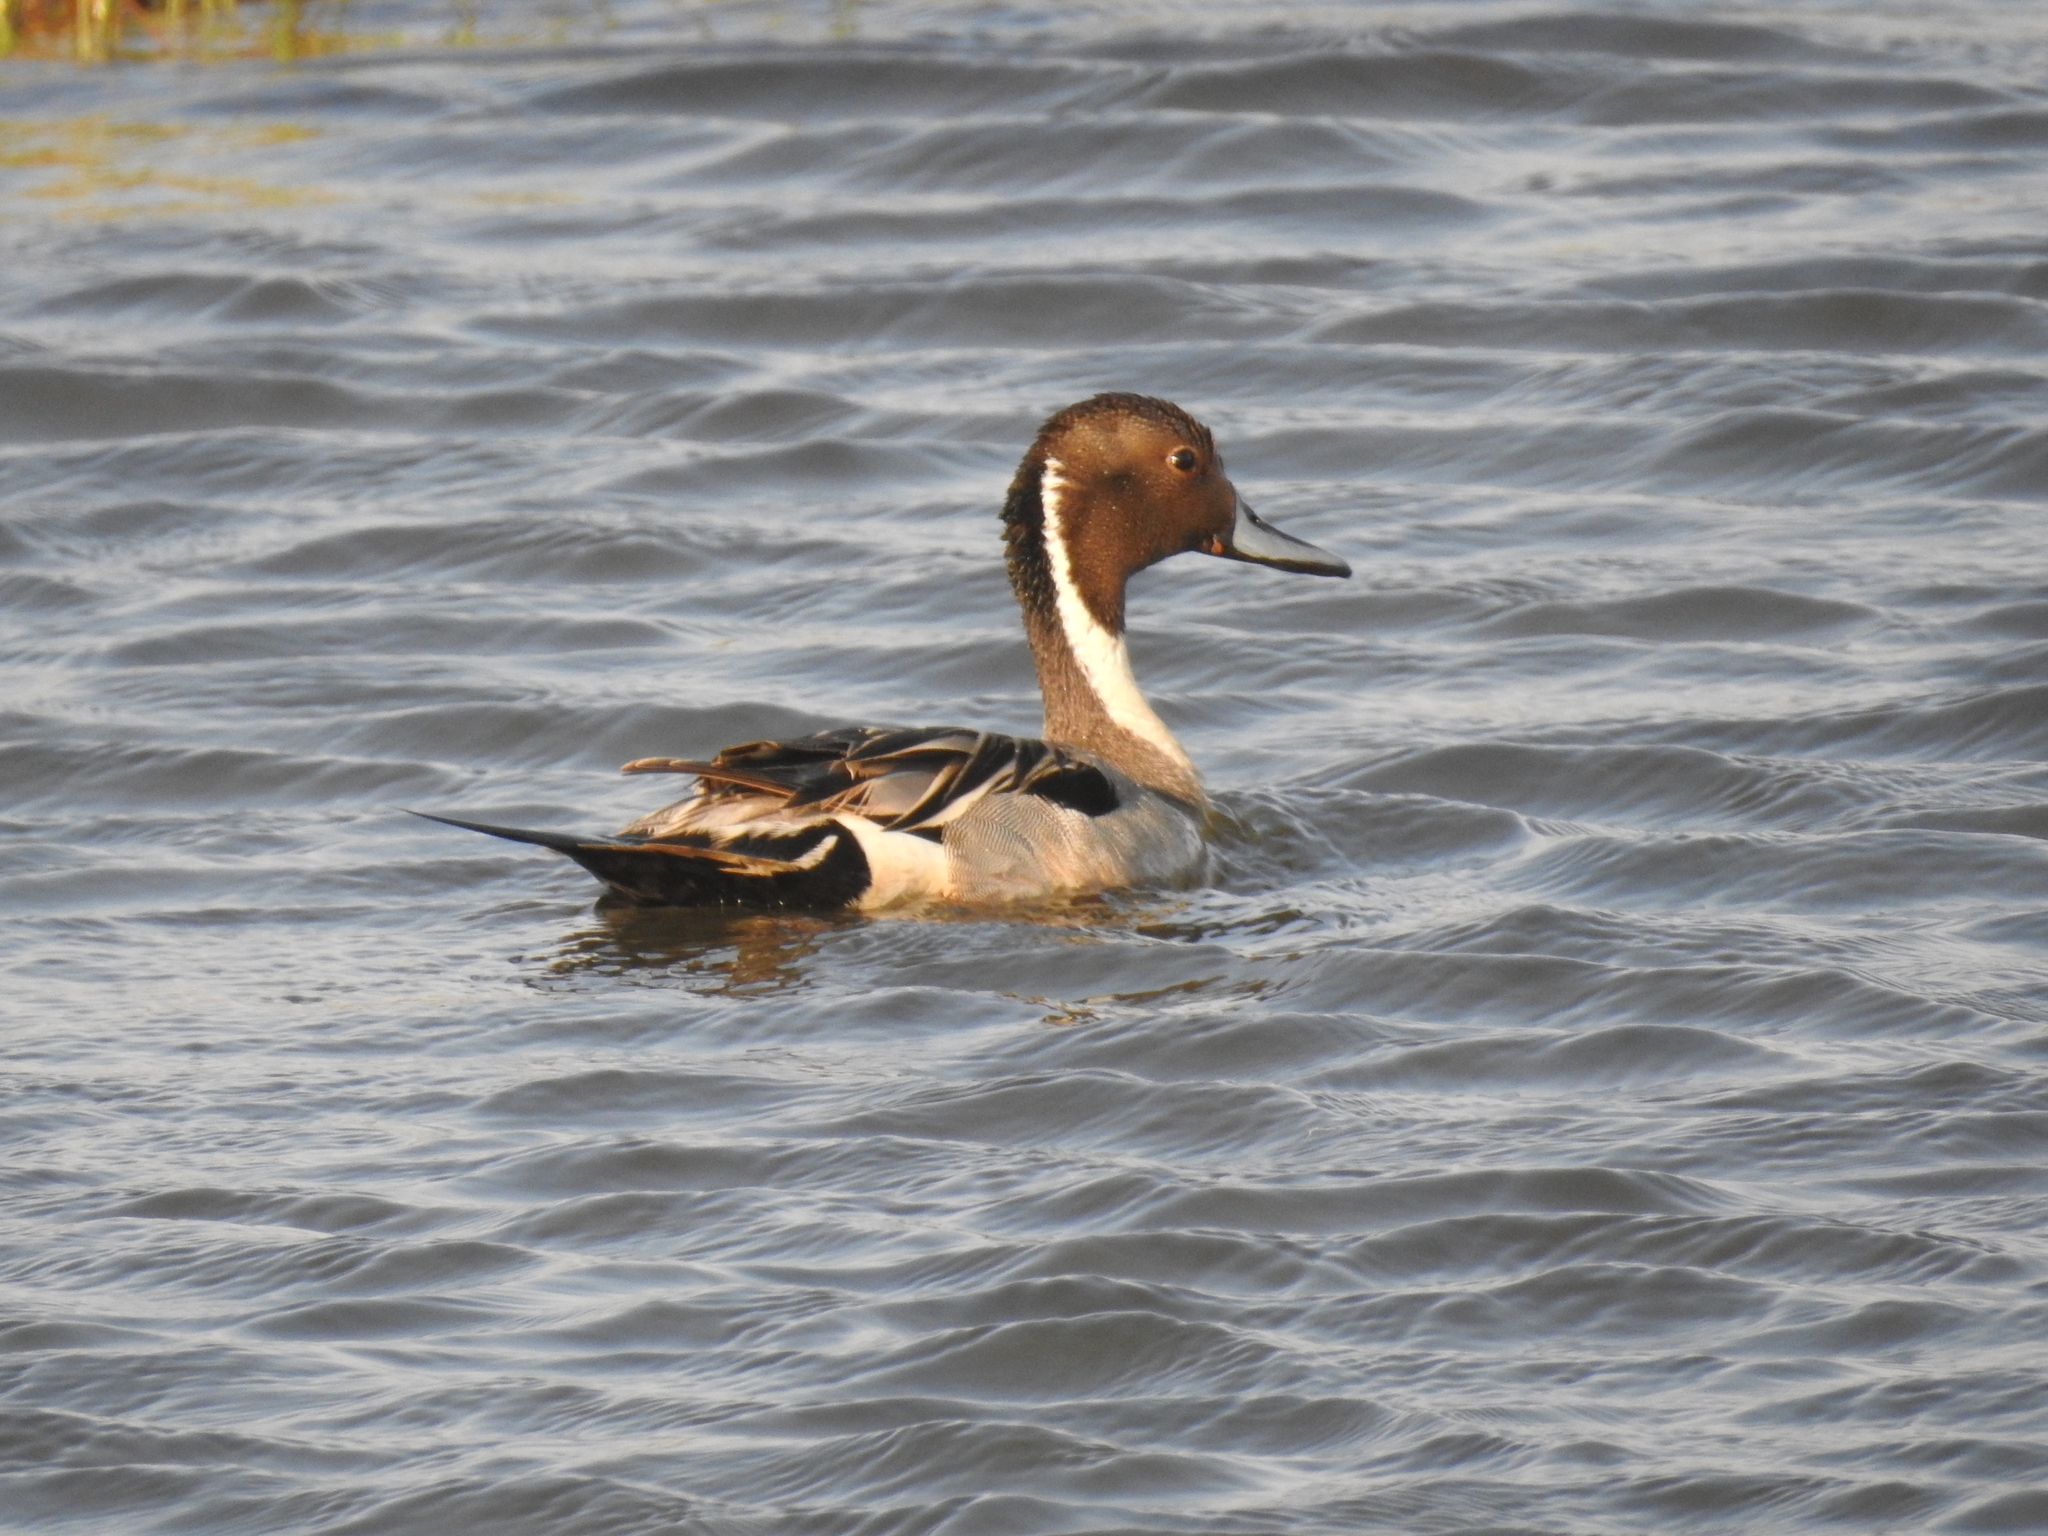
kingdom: Animalia
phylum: Chordata
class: Aves
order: Anseriformes
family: Anatidae
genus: Anas
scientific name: Anas acuta
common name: Northern pintail
